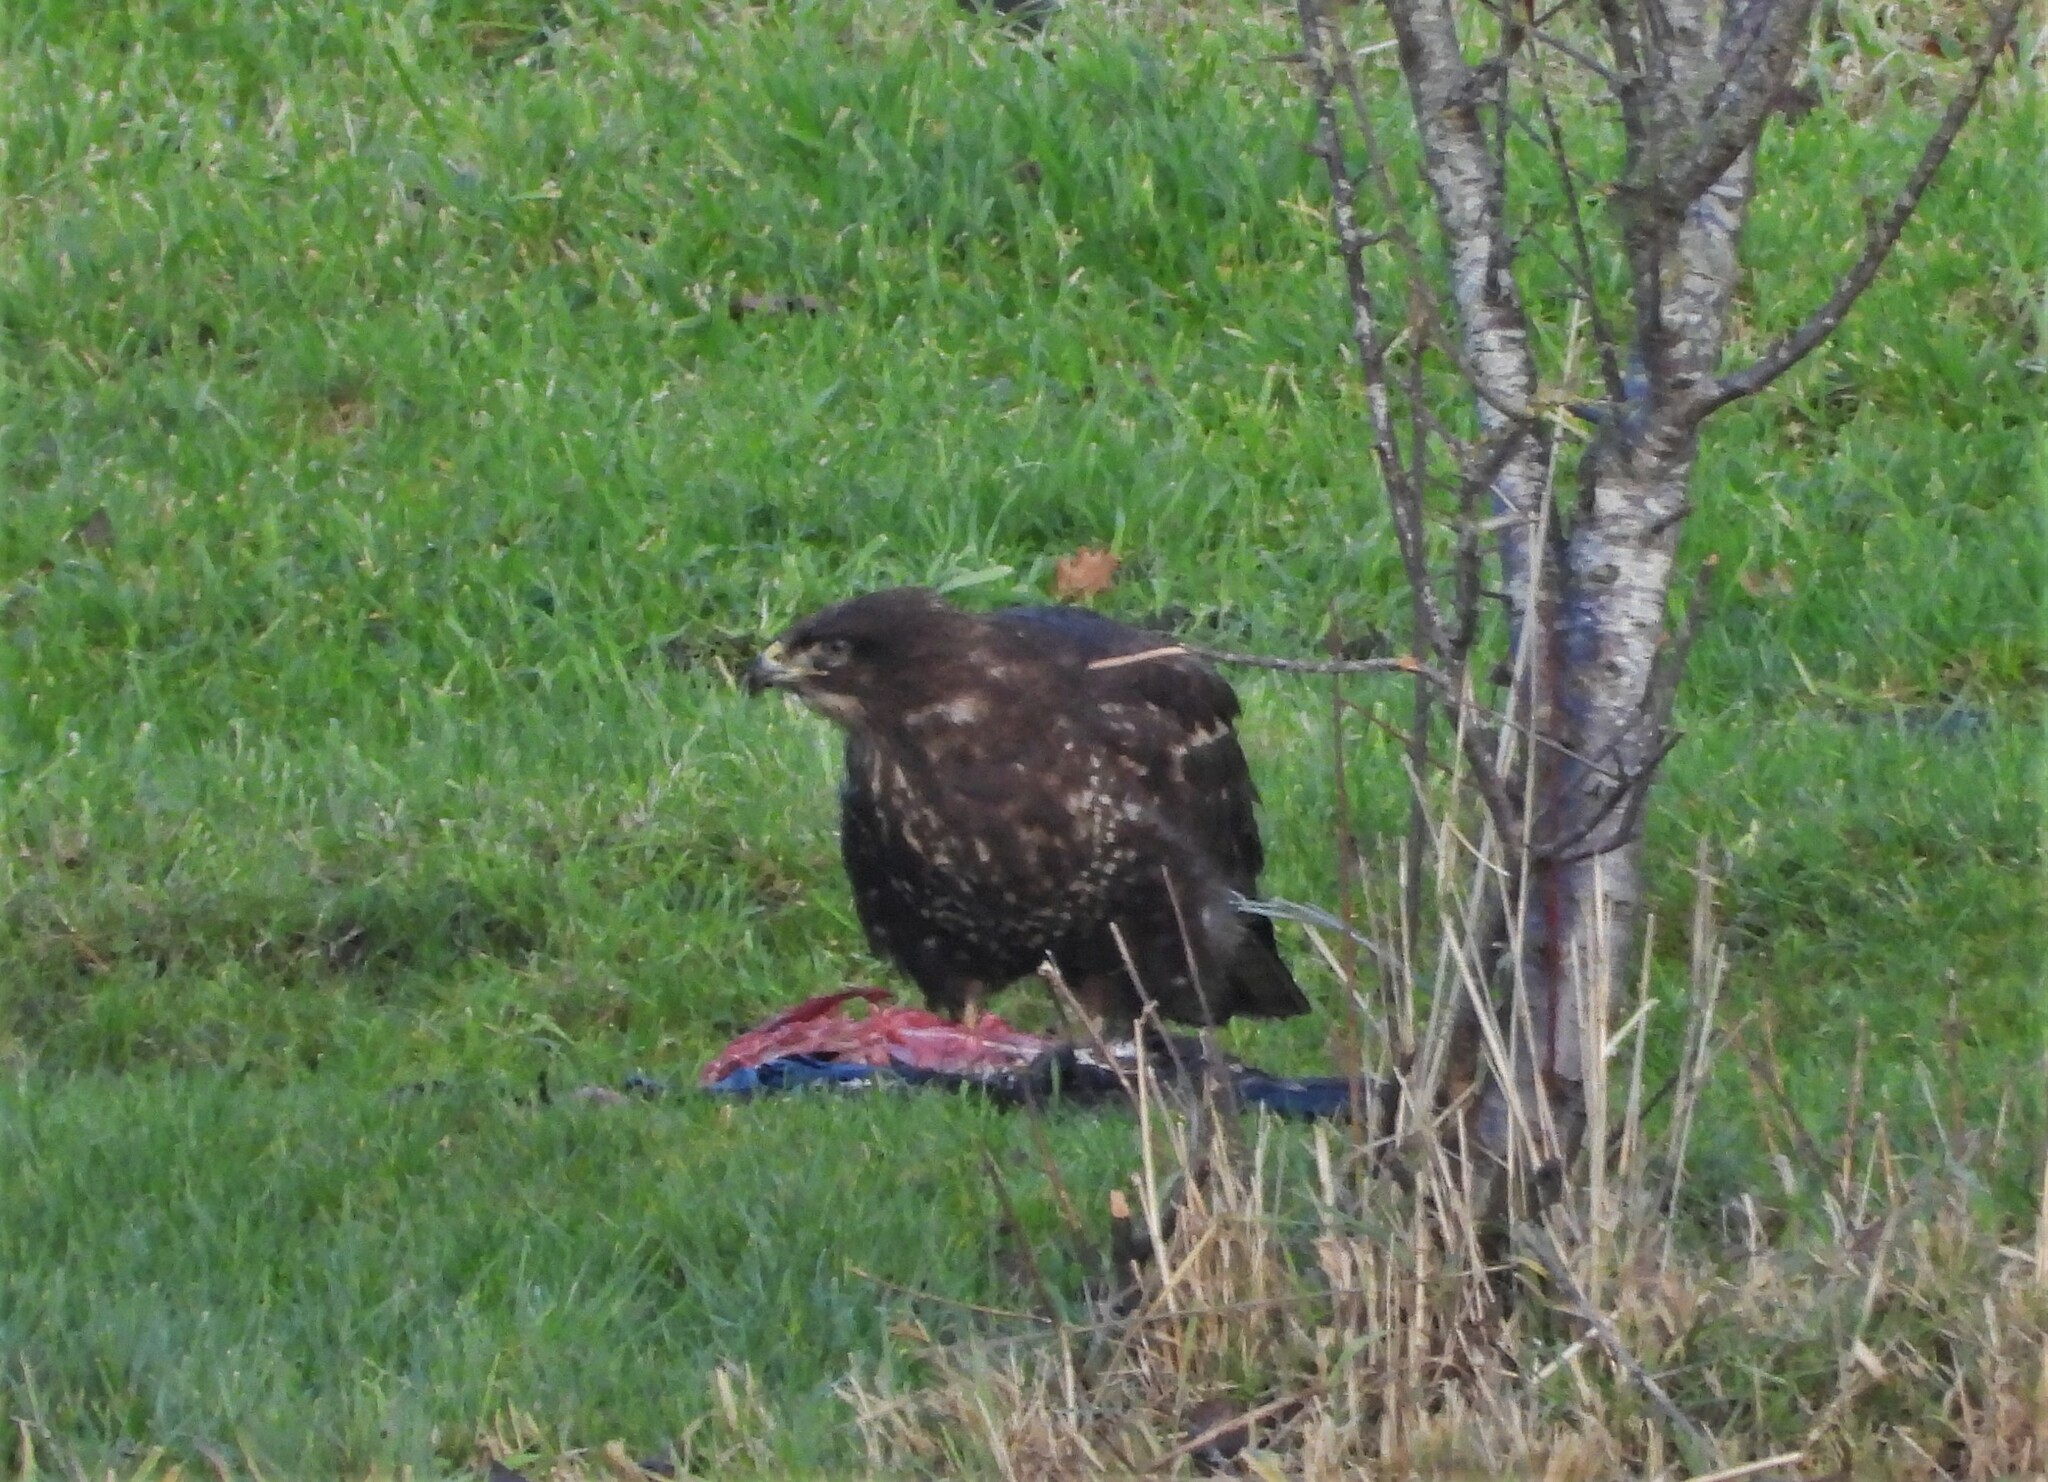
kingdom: Animalia
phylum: Chordata
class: Aves
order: Accipitriformes
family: Accipitridae
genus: Buteo
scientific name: Buteo buteo
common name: Common buzzard
